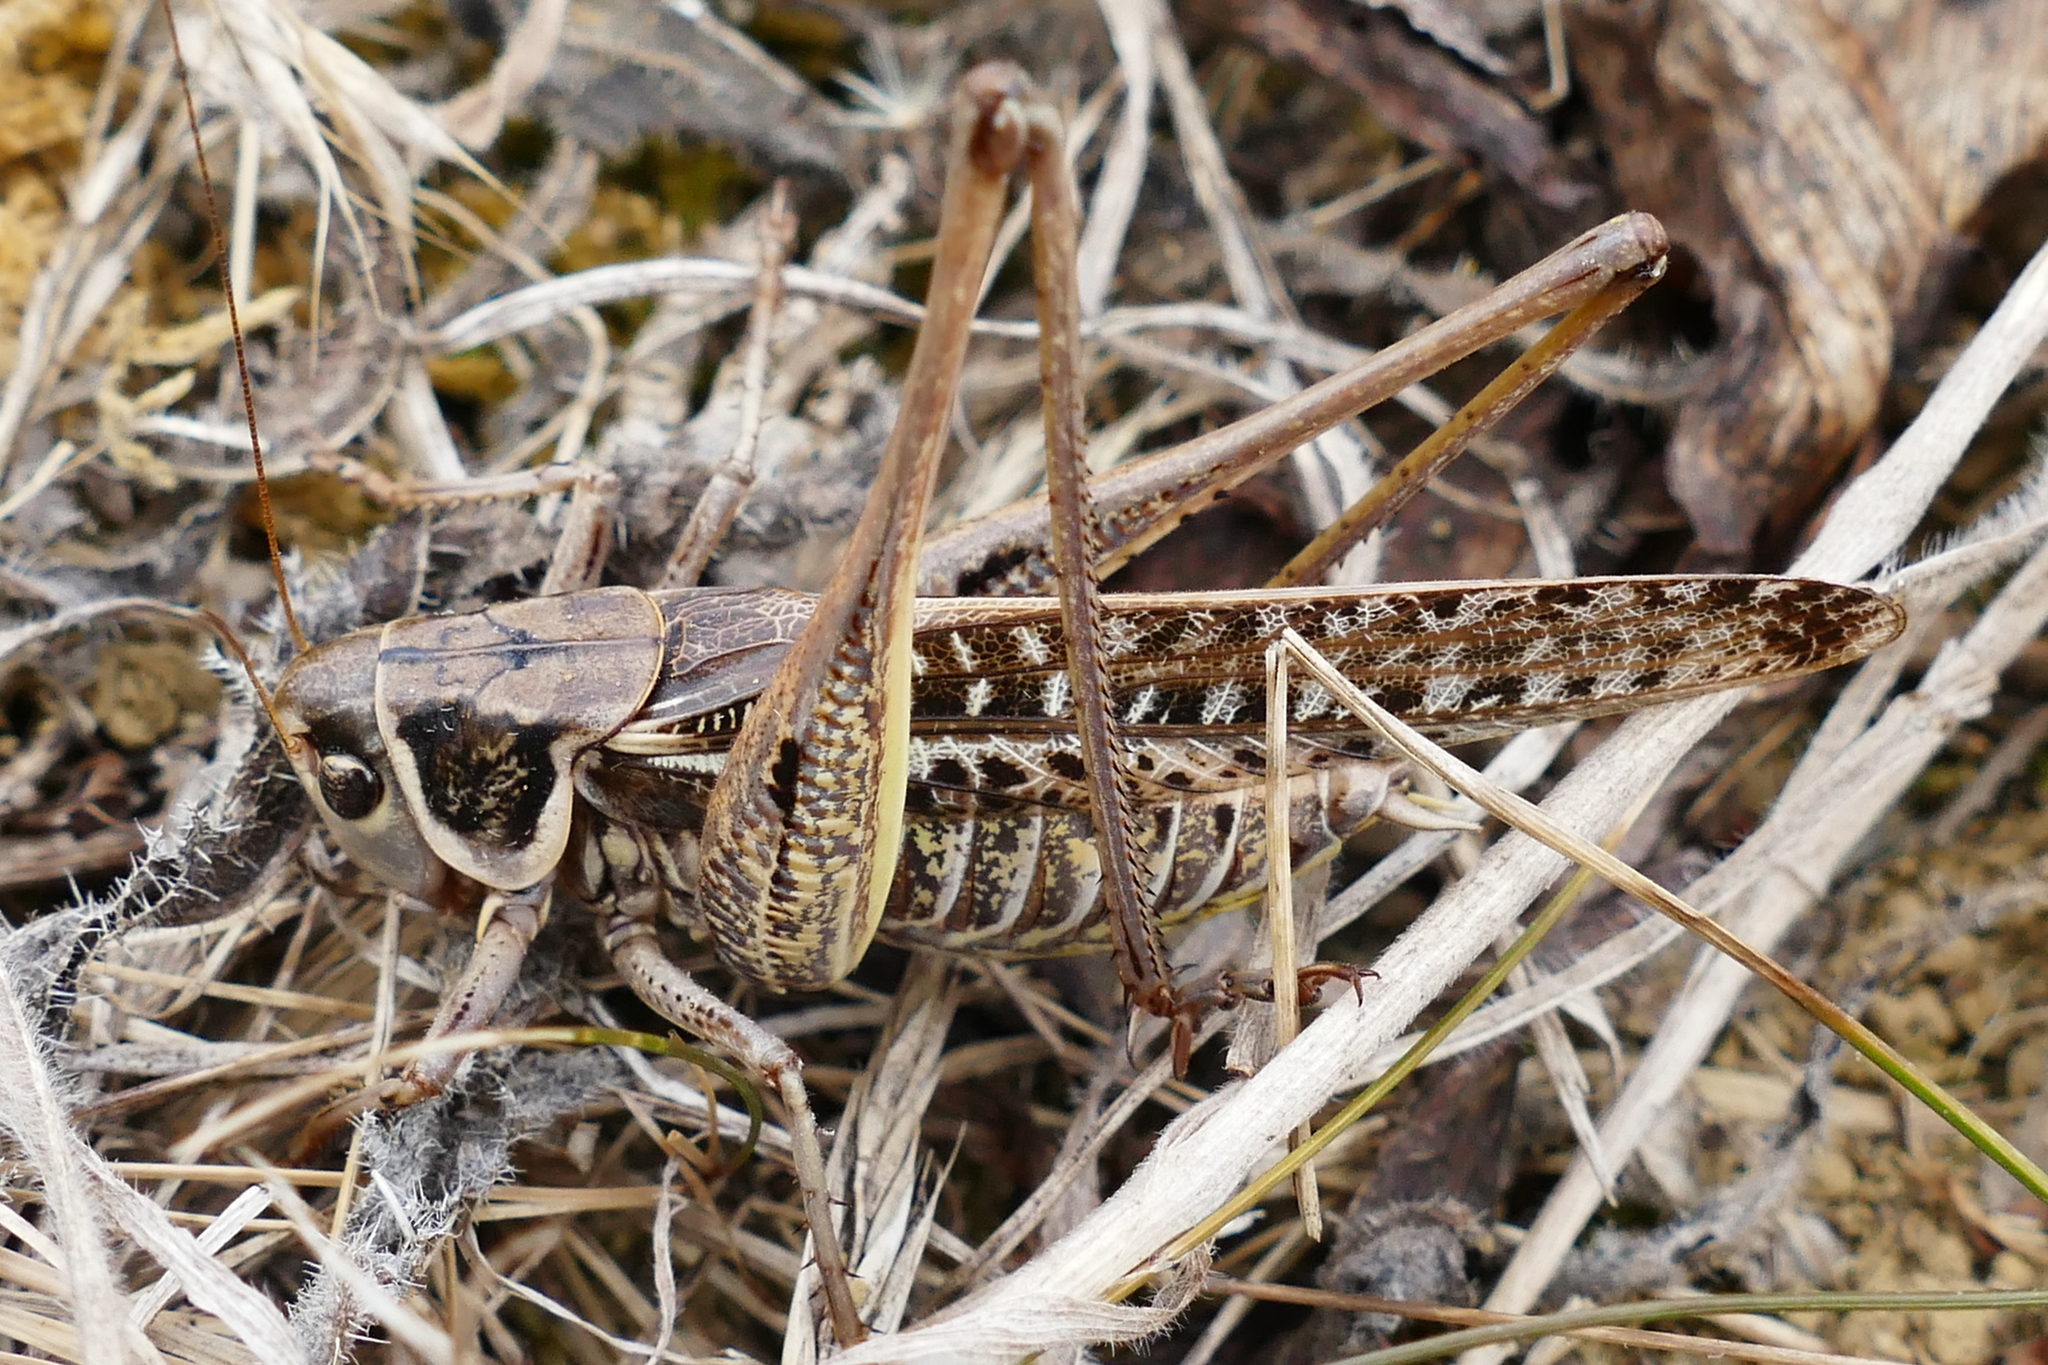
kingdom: Animalia
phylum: Arthropoda
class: Insecta
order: Orthoptera
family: Tettigoniidae
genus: Decticus
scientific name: Decticus albifrons
